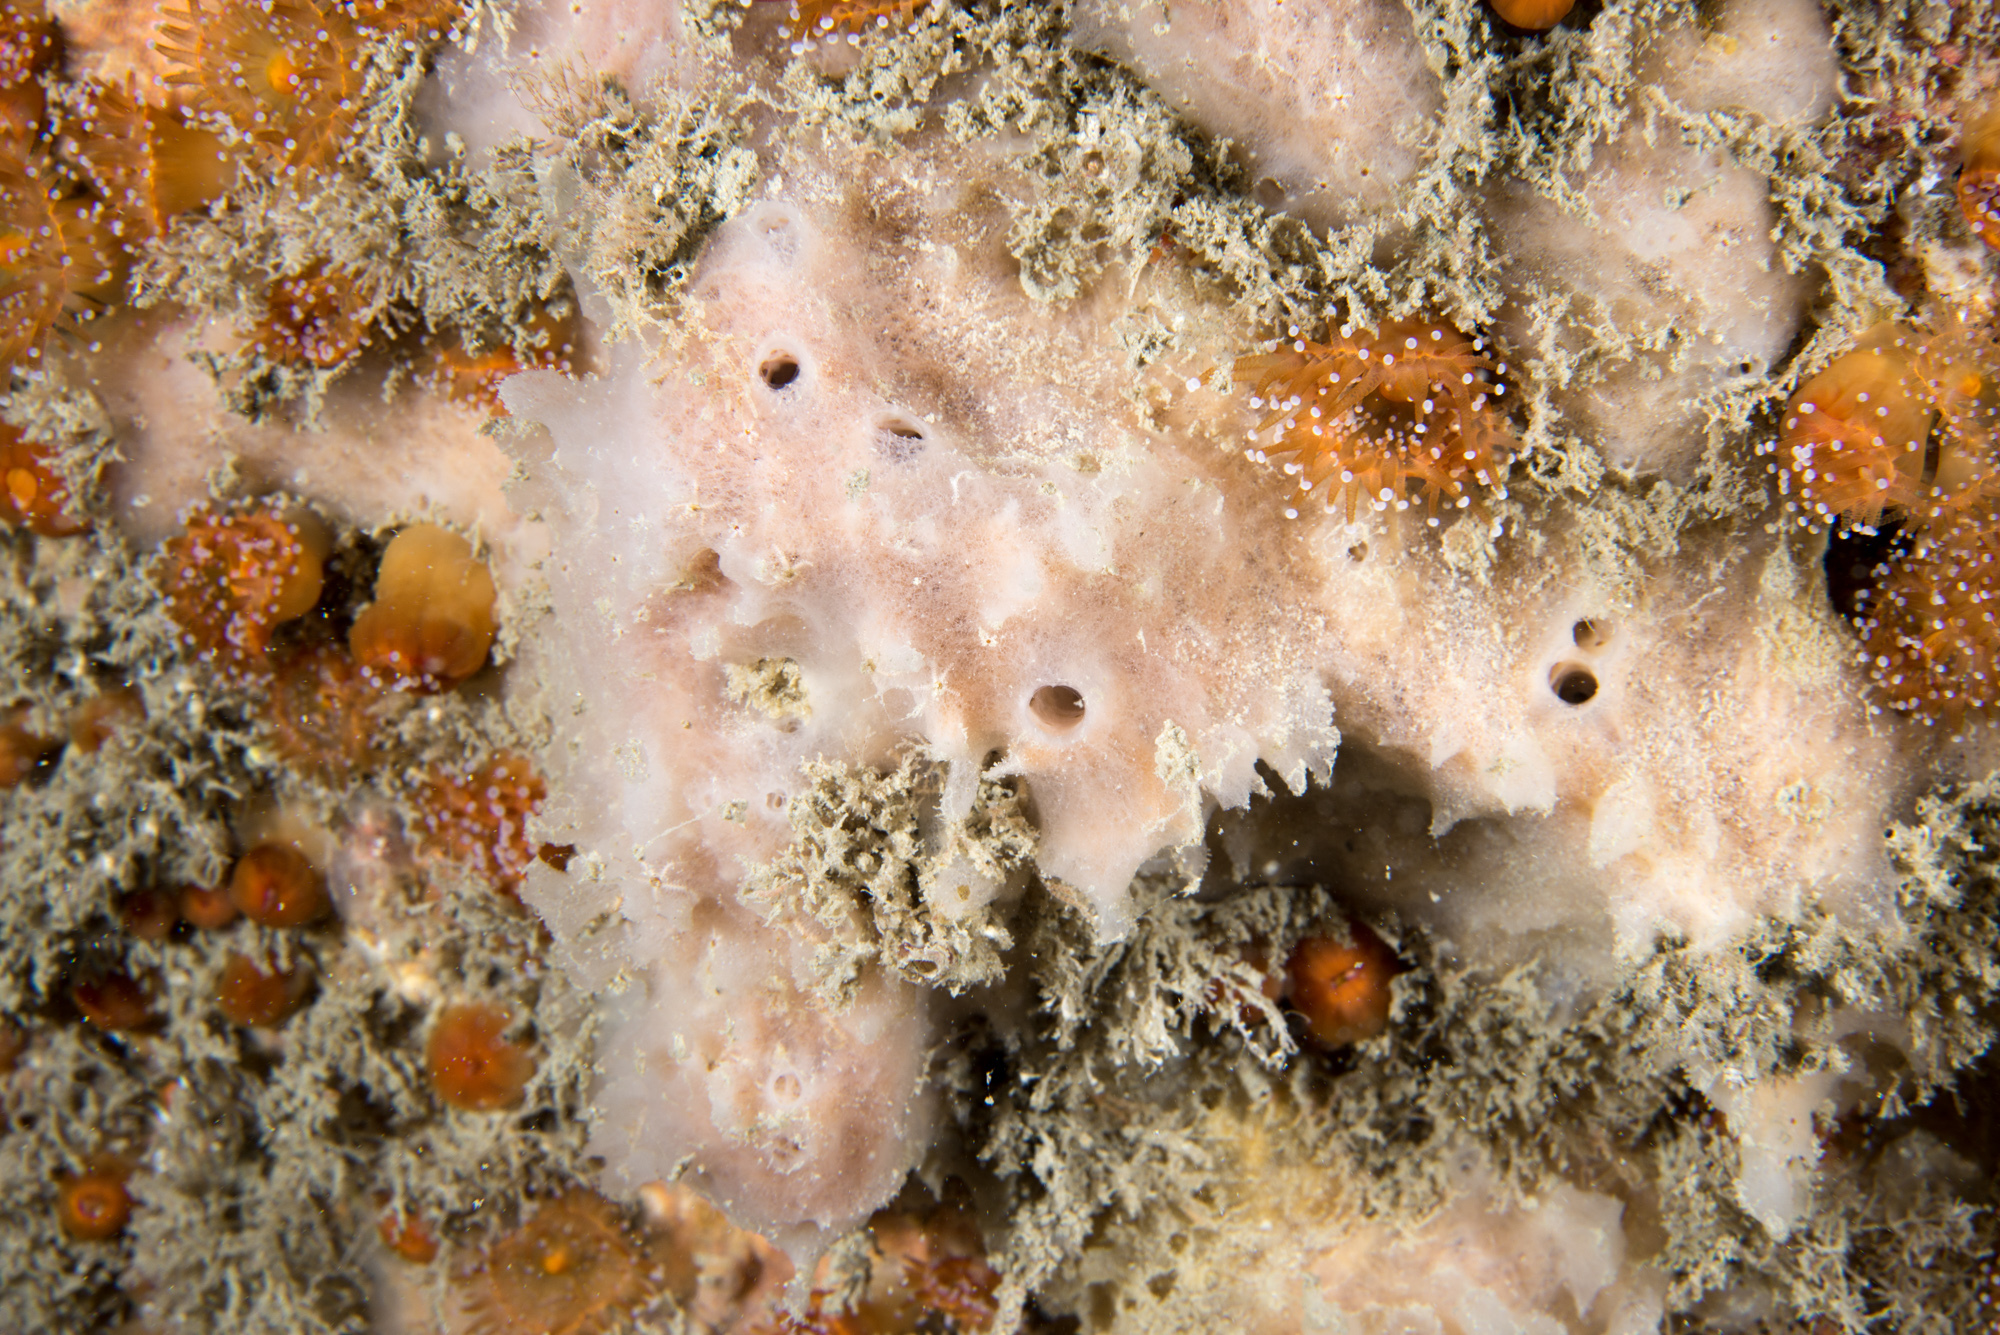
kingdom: Animalia
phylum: Porifera
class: Demospongiae
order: Haplosclerida
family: Chalinidae
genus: Haliclona
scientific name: Haliclona angulata
